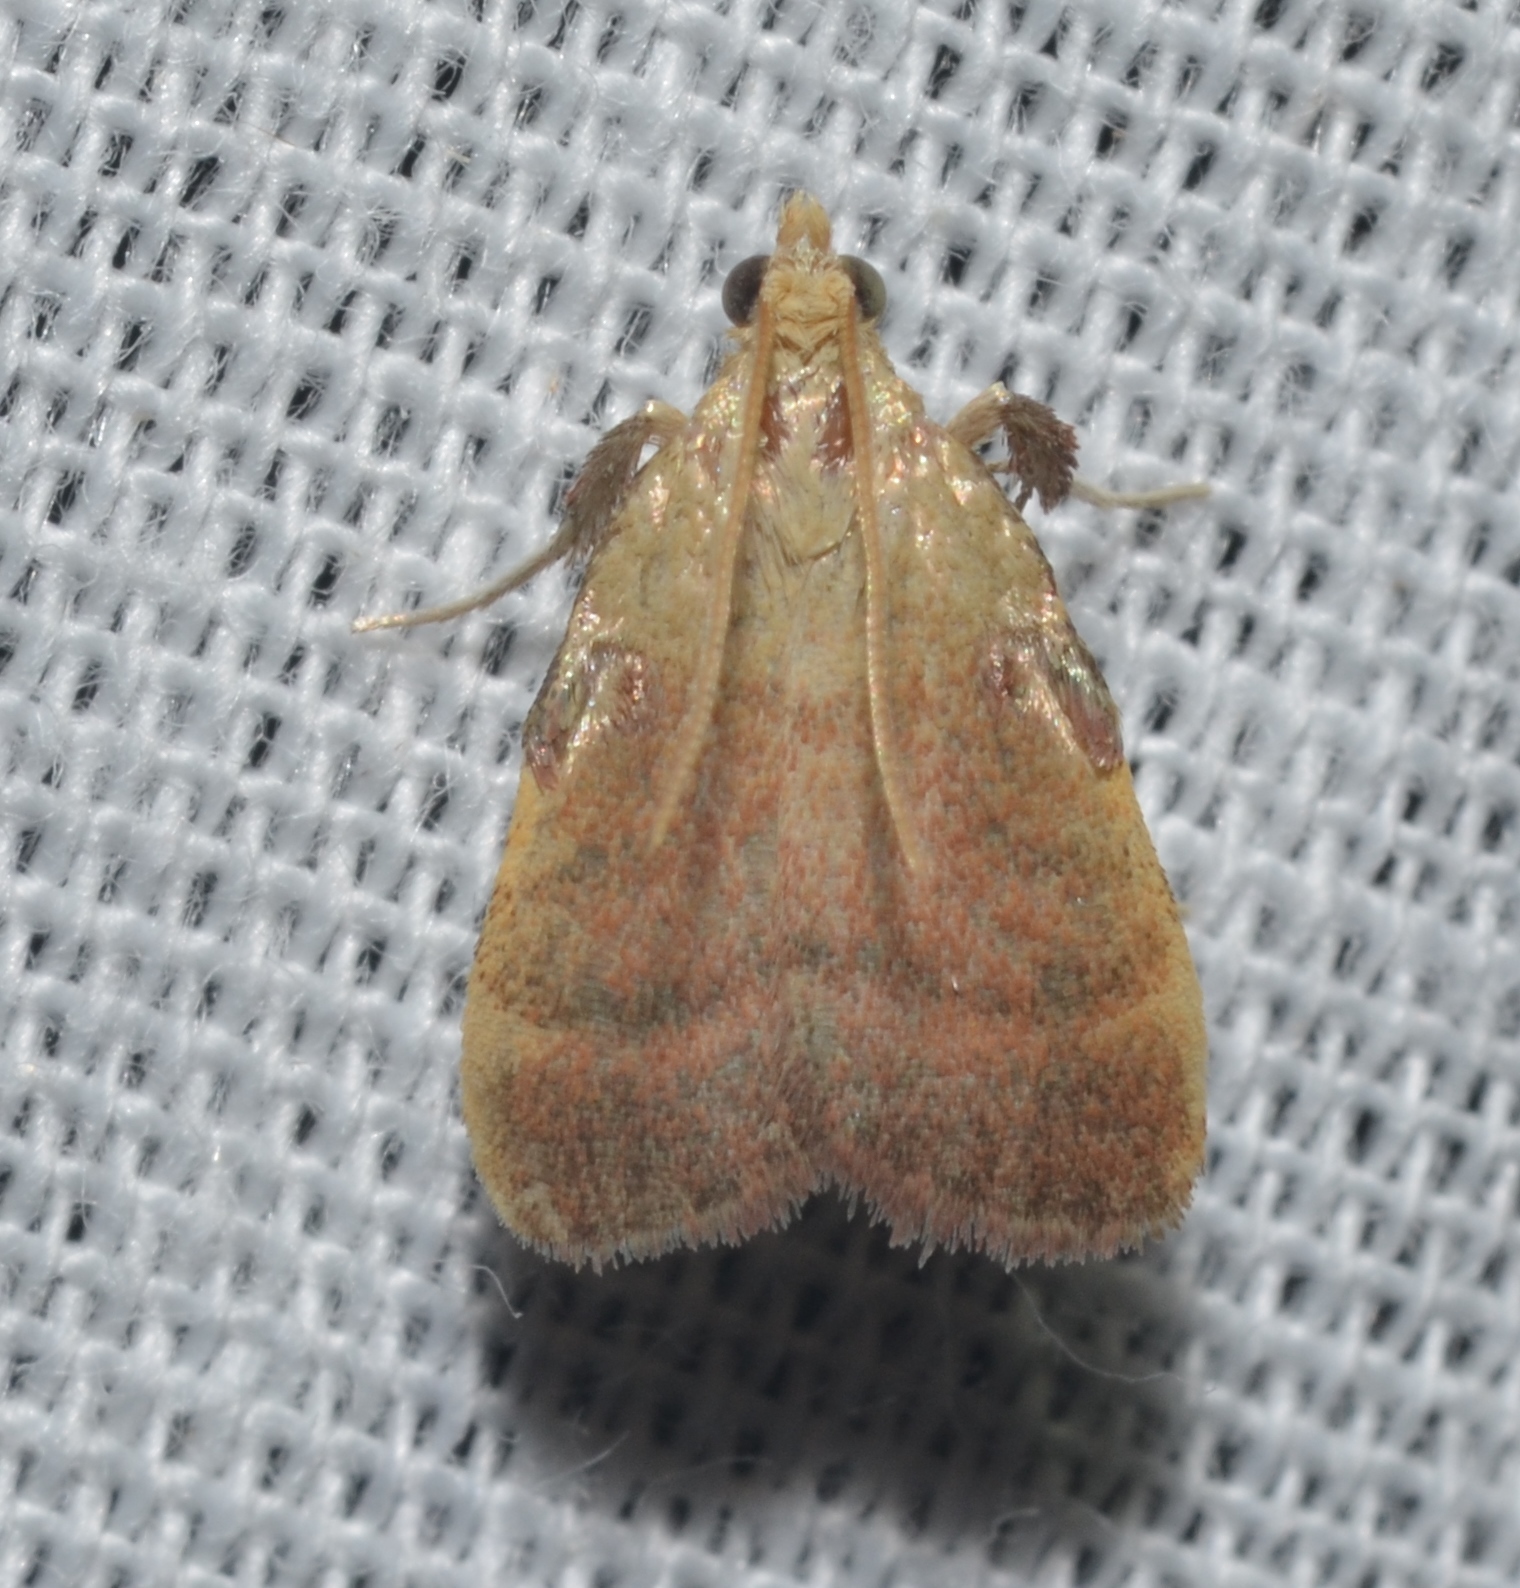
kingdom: Animalia
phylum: Arthropoda
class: Insecta
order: Lepidoptera
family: Pyralidae
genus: Condylolomia
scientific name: Condylolomia participialis
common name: Drab condylolomia moth
